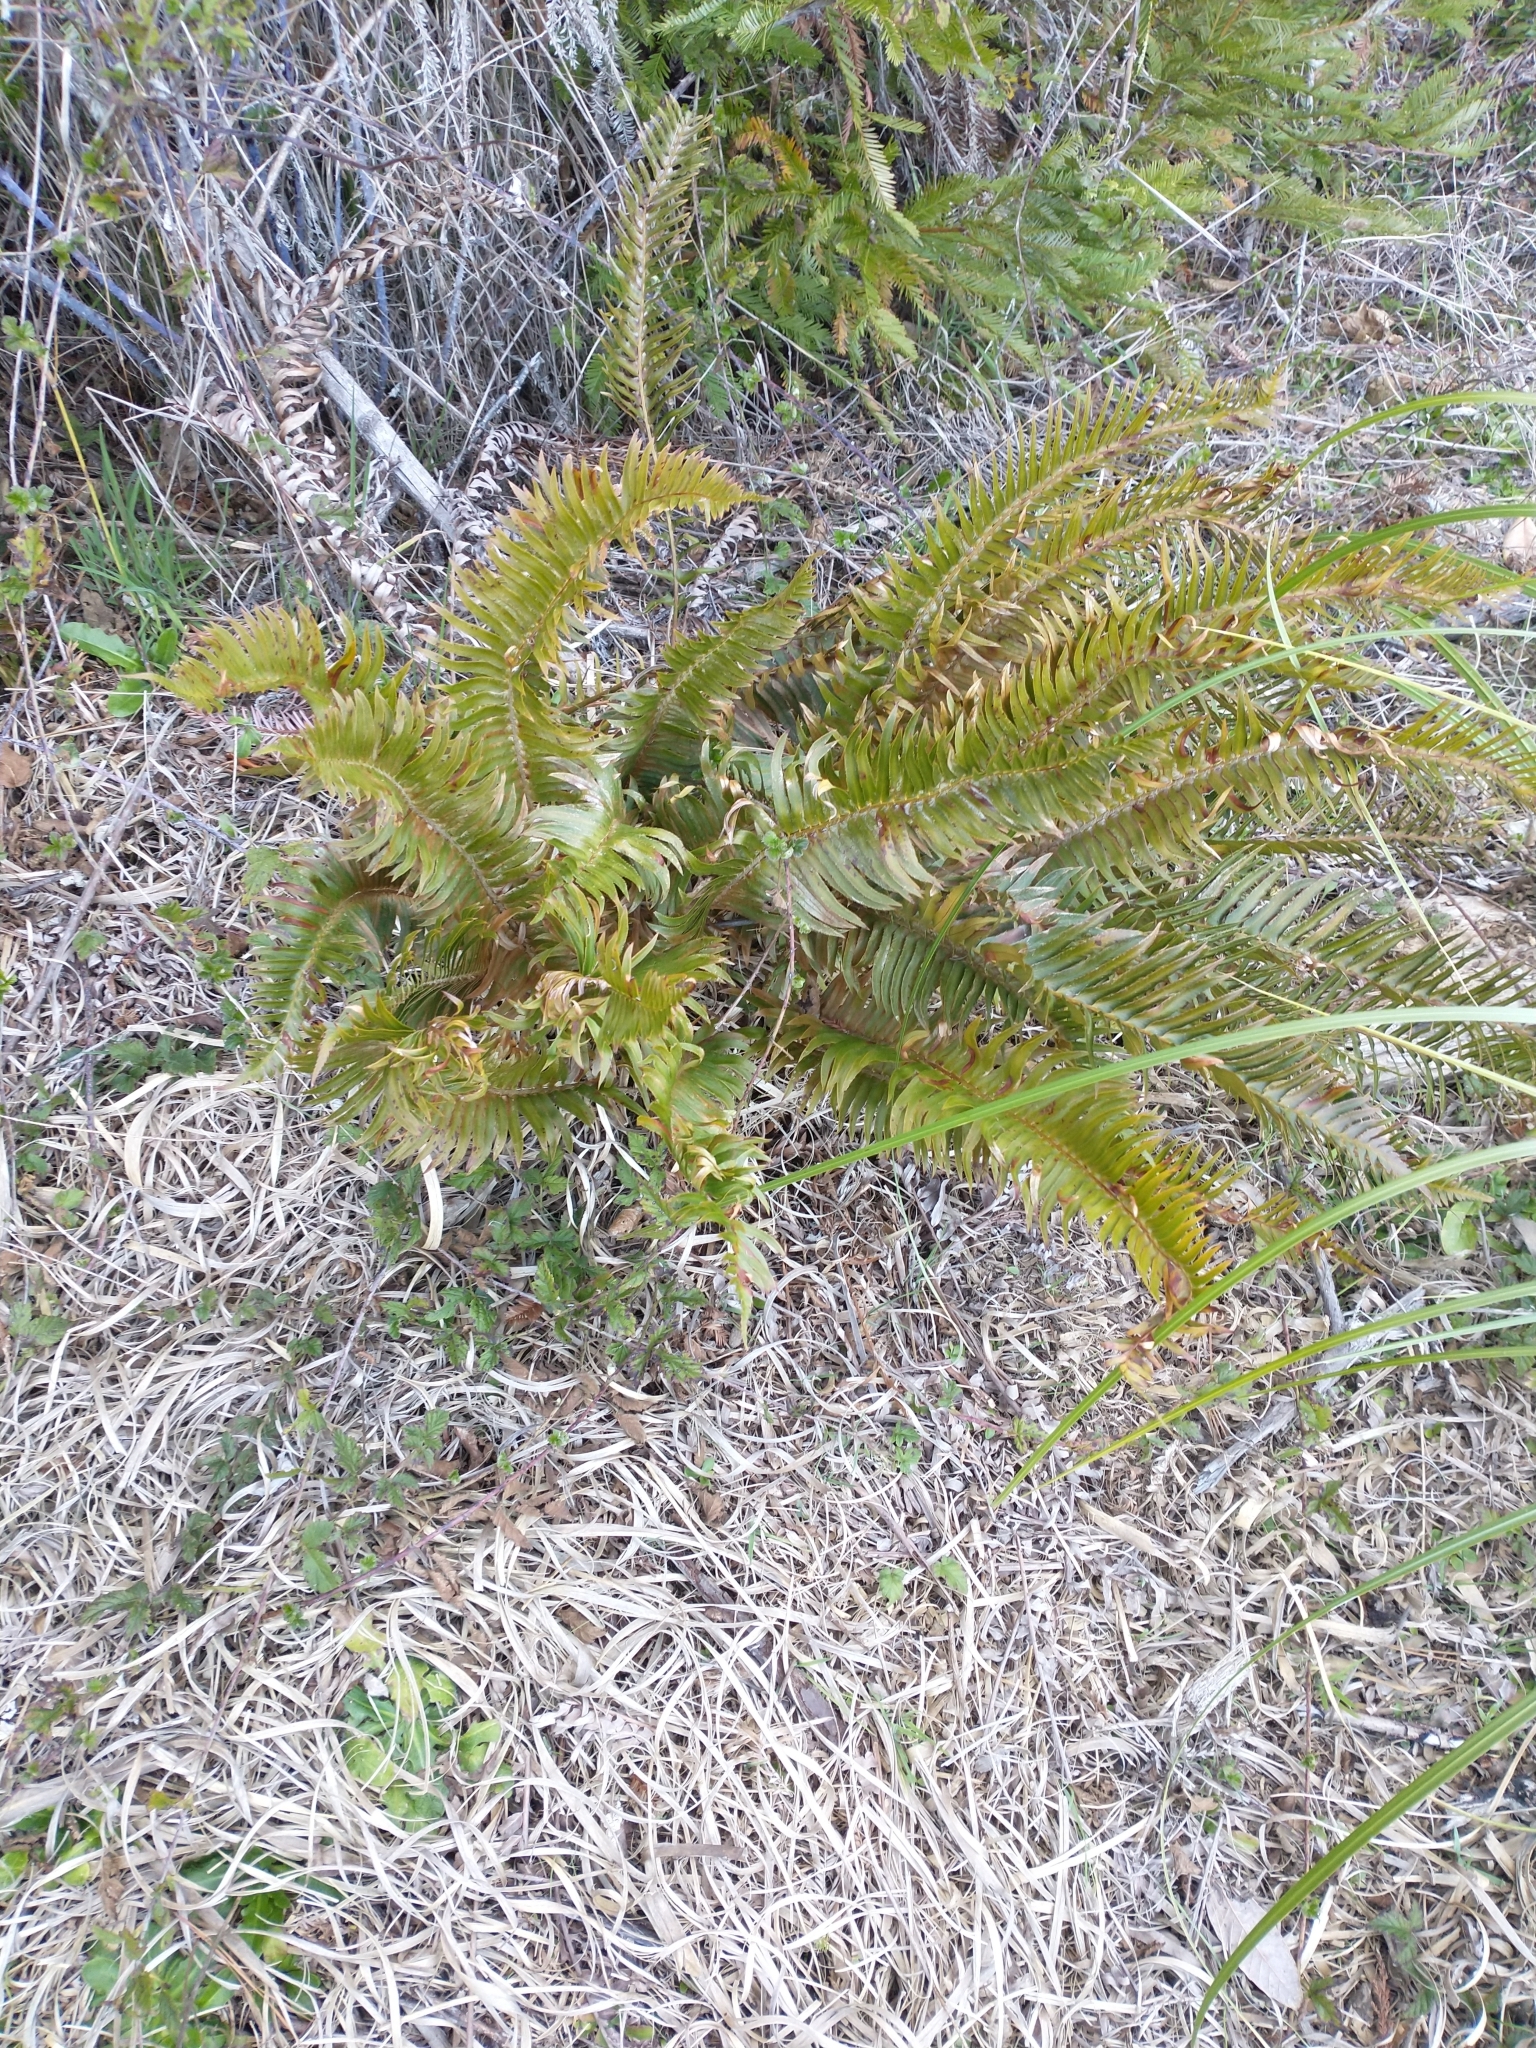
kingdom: Plantae
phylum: Tracheophyta
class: Polypodiopsida
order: Polypodiales
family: Dryopteridaceae
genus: Polystichum
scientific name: Polystichum munitum
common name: Western sword-fern
